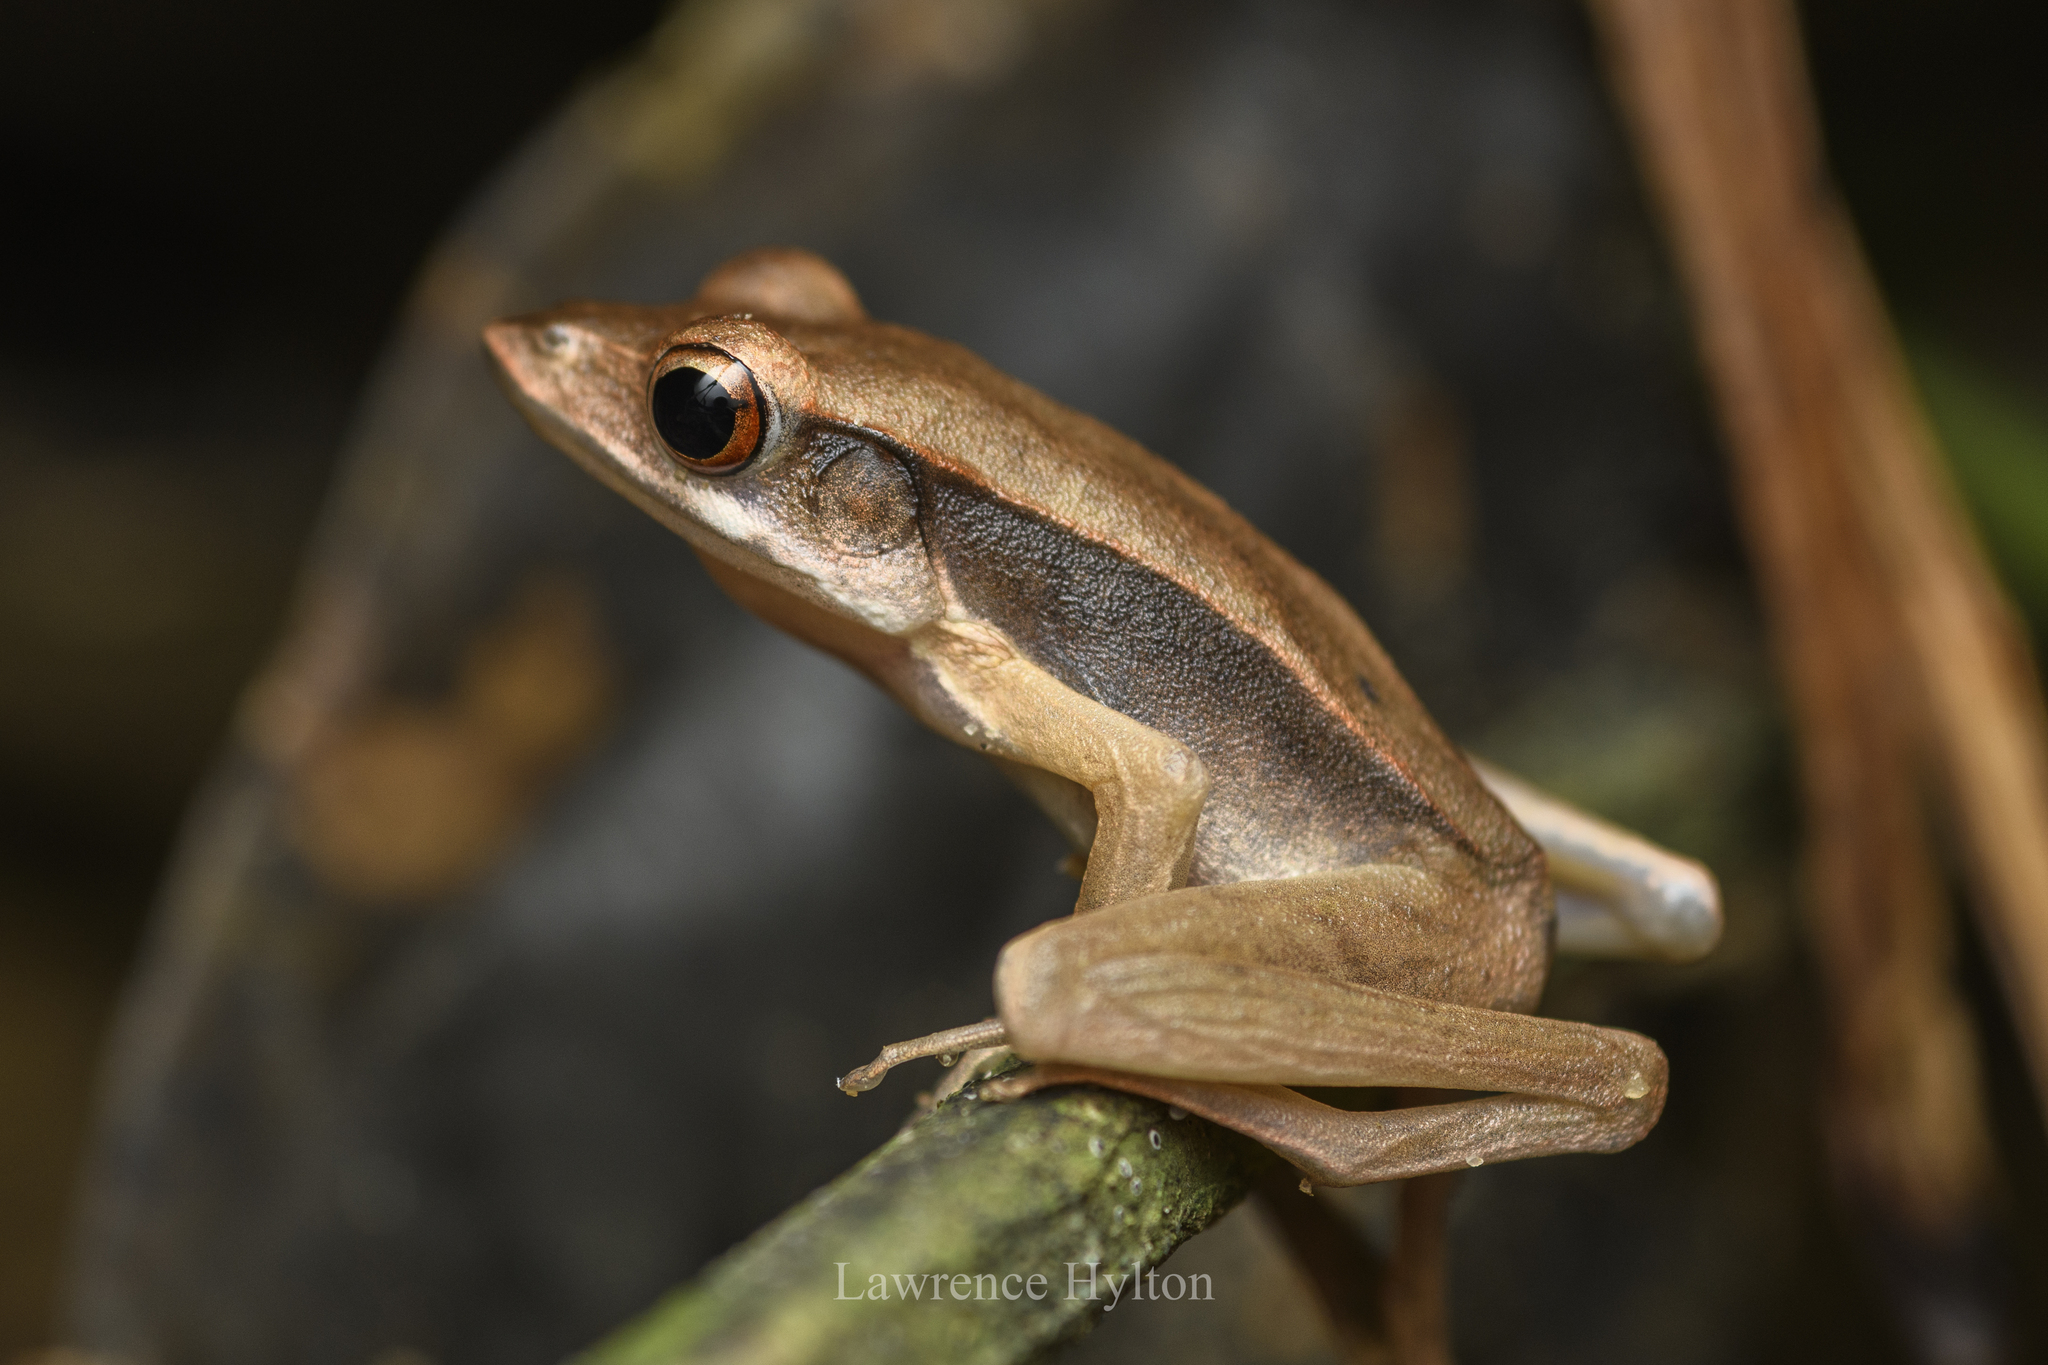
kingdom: Animalia
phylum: Chordata
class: Amphibia
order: Anura
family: Ranidae
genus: Clinotarsus
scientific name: Clinotarsus penelope
